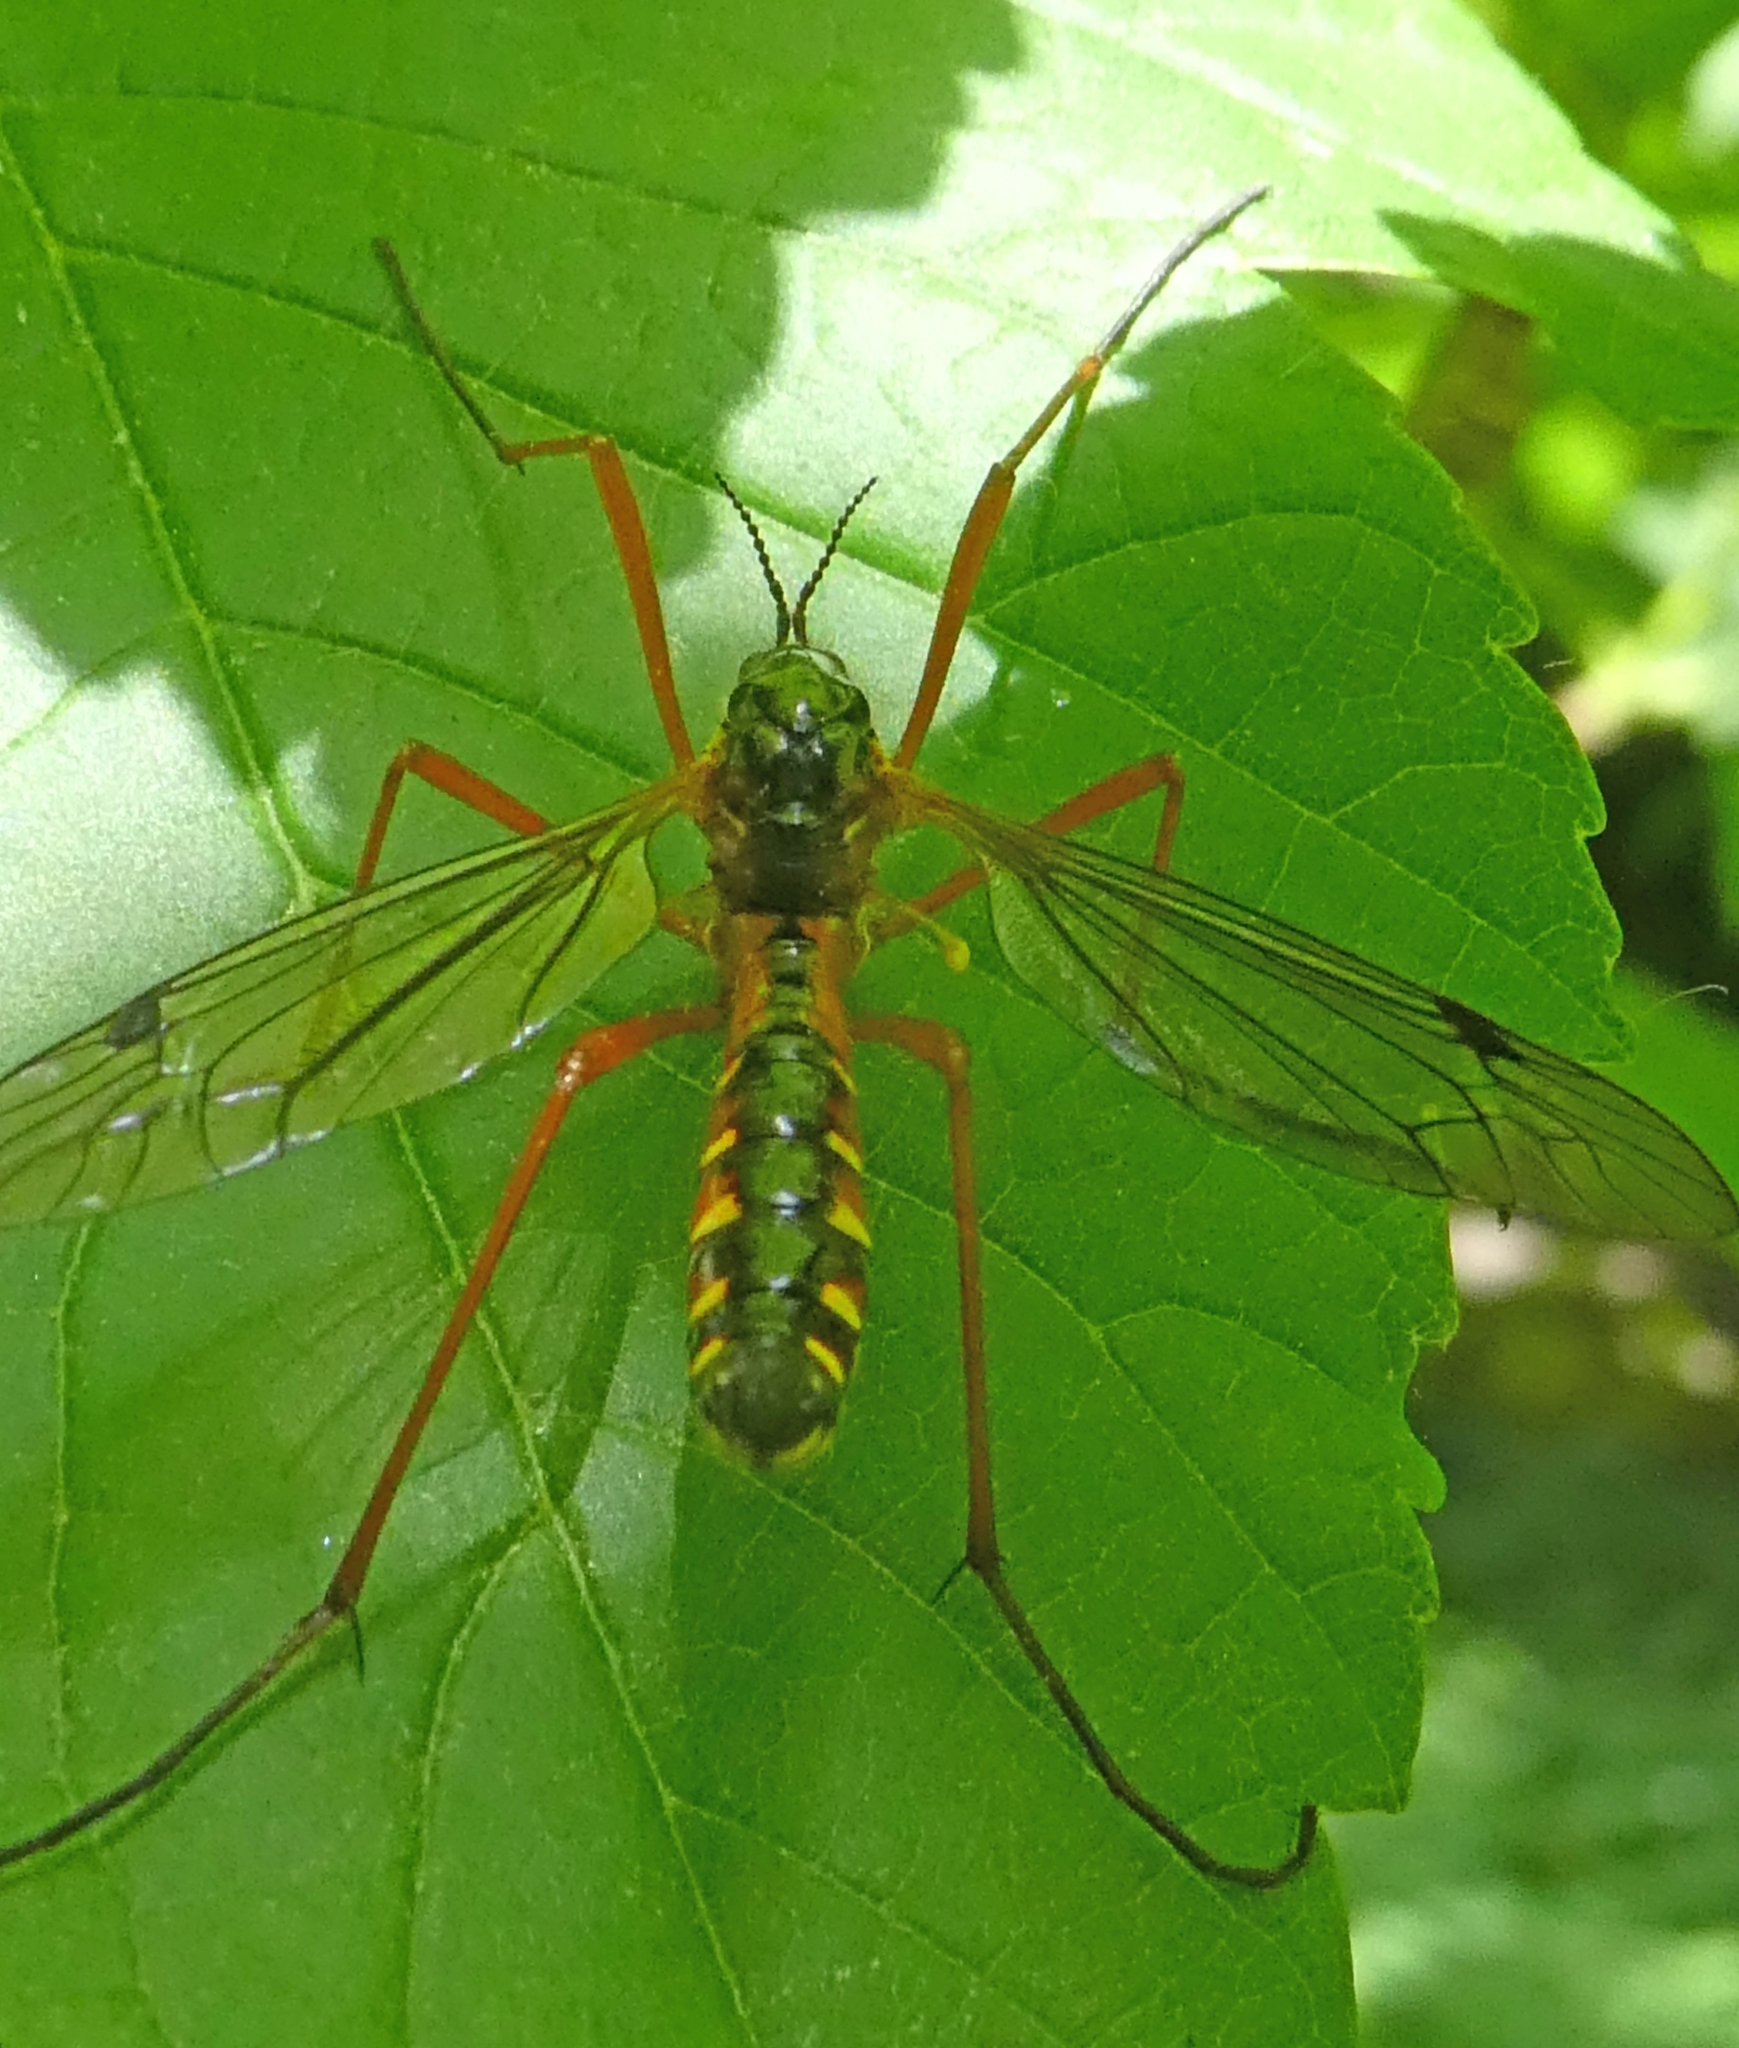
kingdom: Animalia
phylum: Arthropoda
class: Insecta
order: Diptera
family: Tipulidae
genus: Ctenophora
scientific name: Ctenophora pectinicornis
